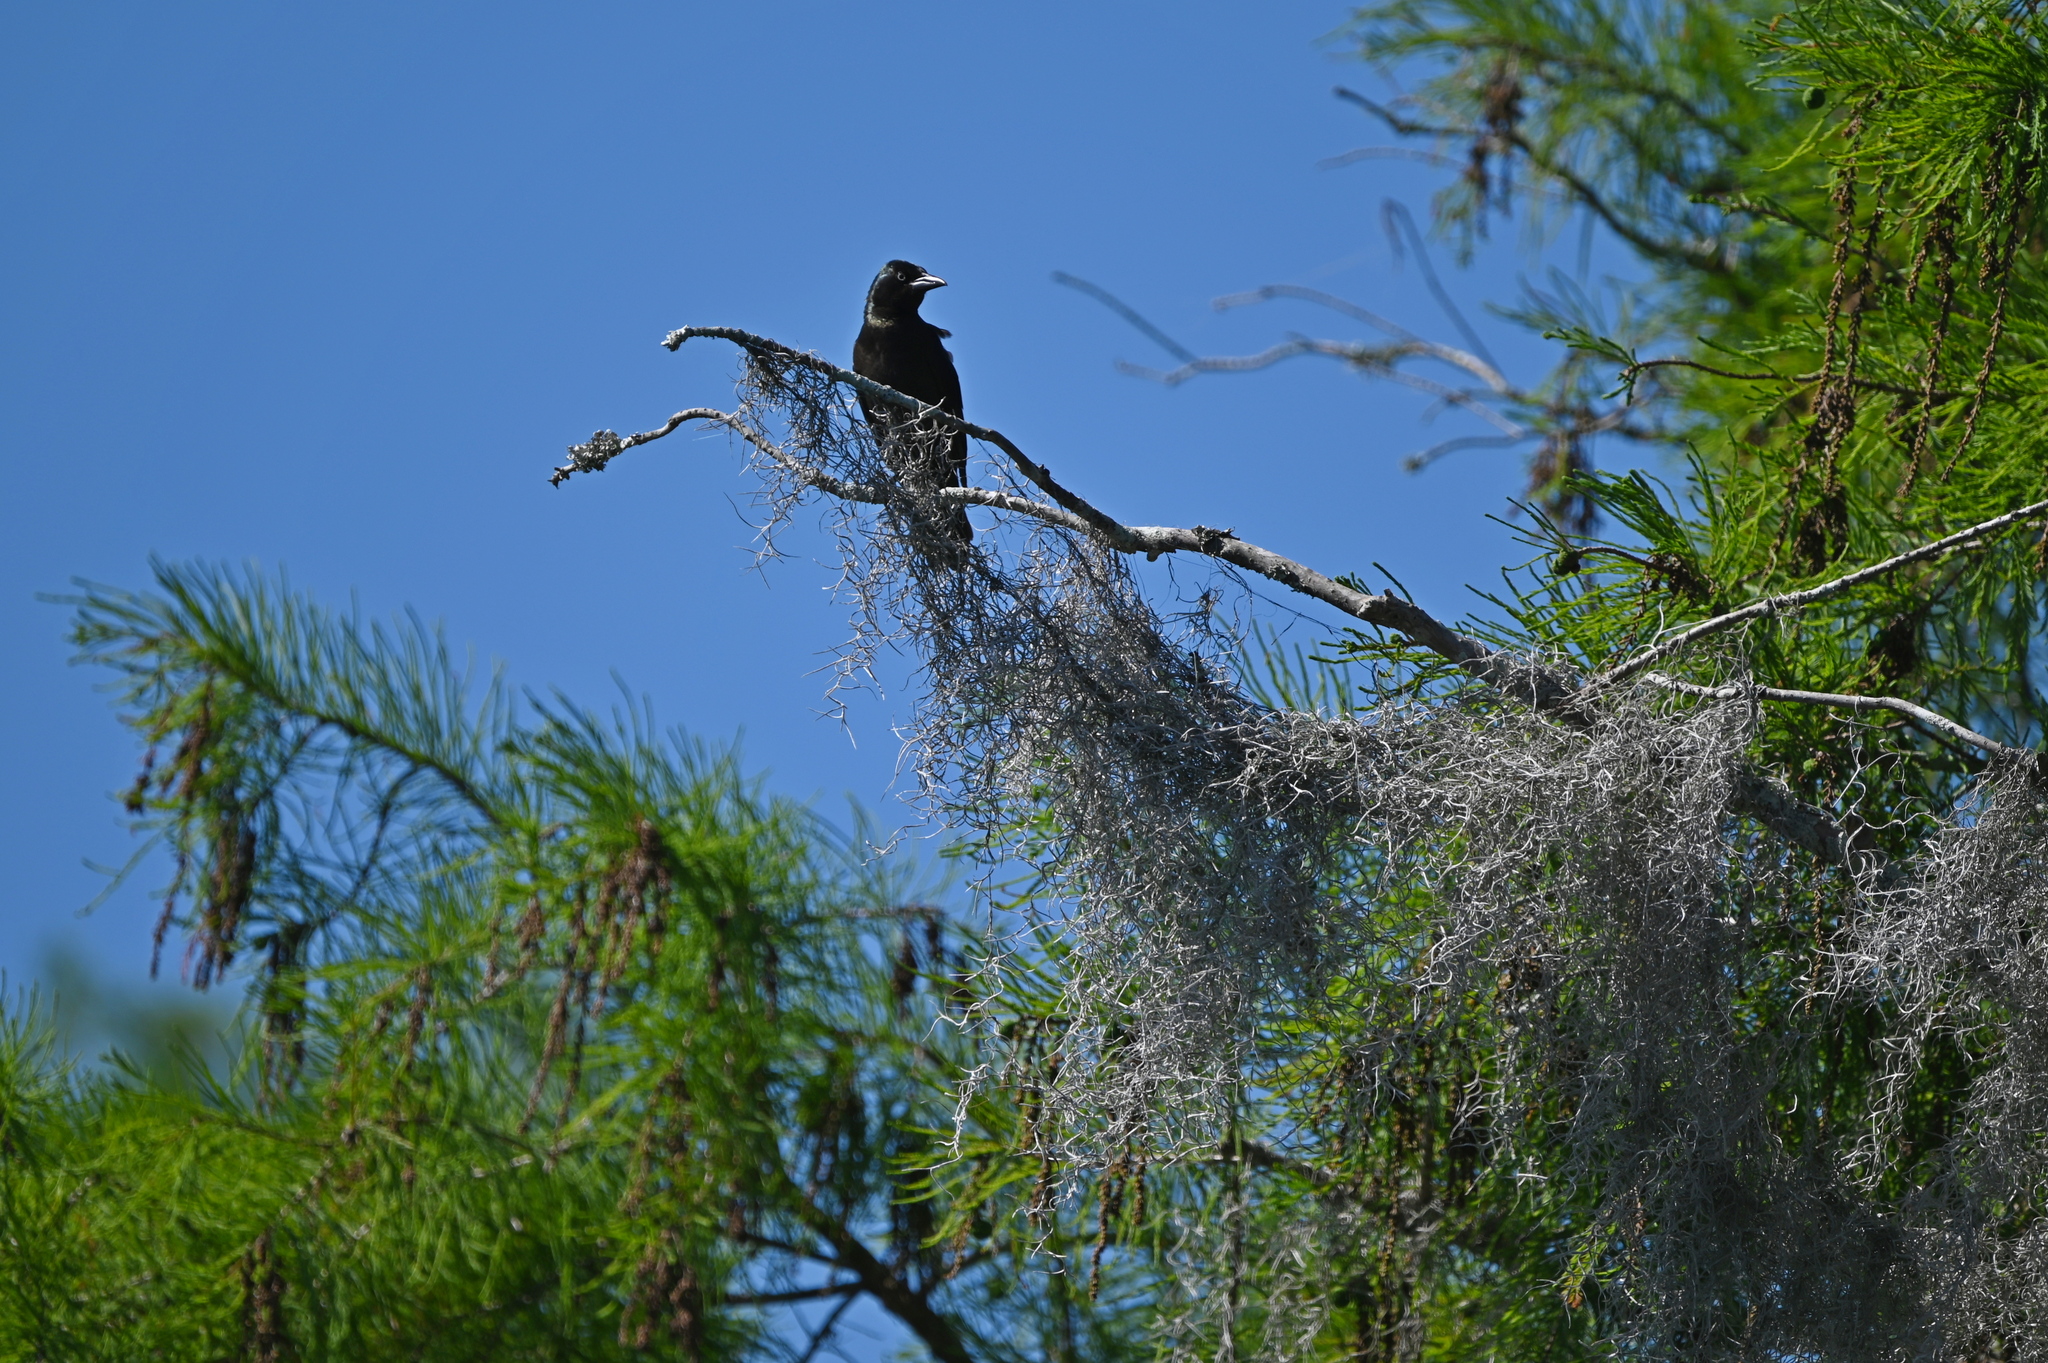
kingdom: Animalia
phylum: Chordata
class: Aves
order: Passeriformes
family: Icteridae
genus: Quiscalus
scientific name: Quiscalus quiscula
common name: Common grackle
